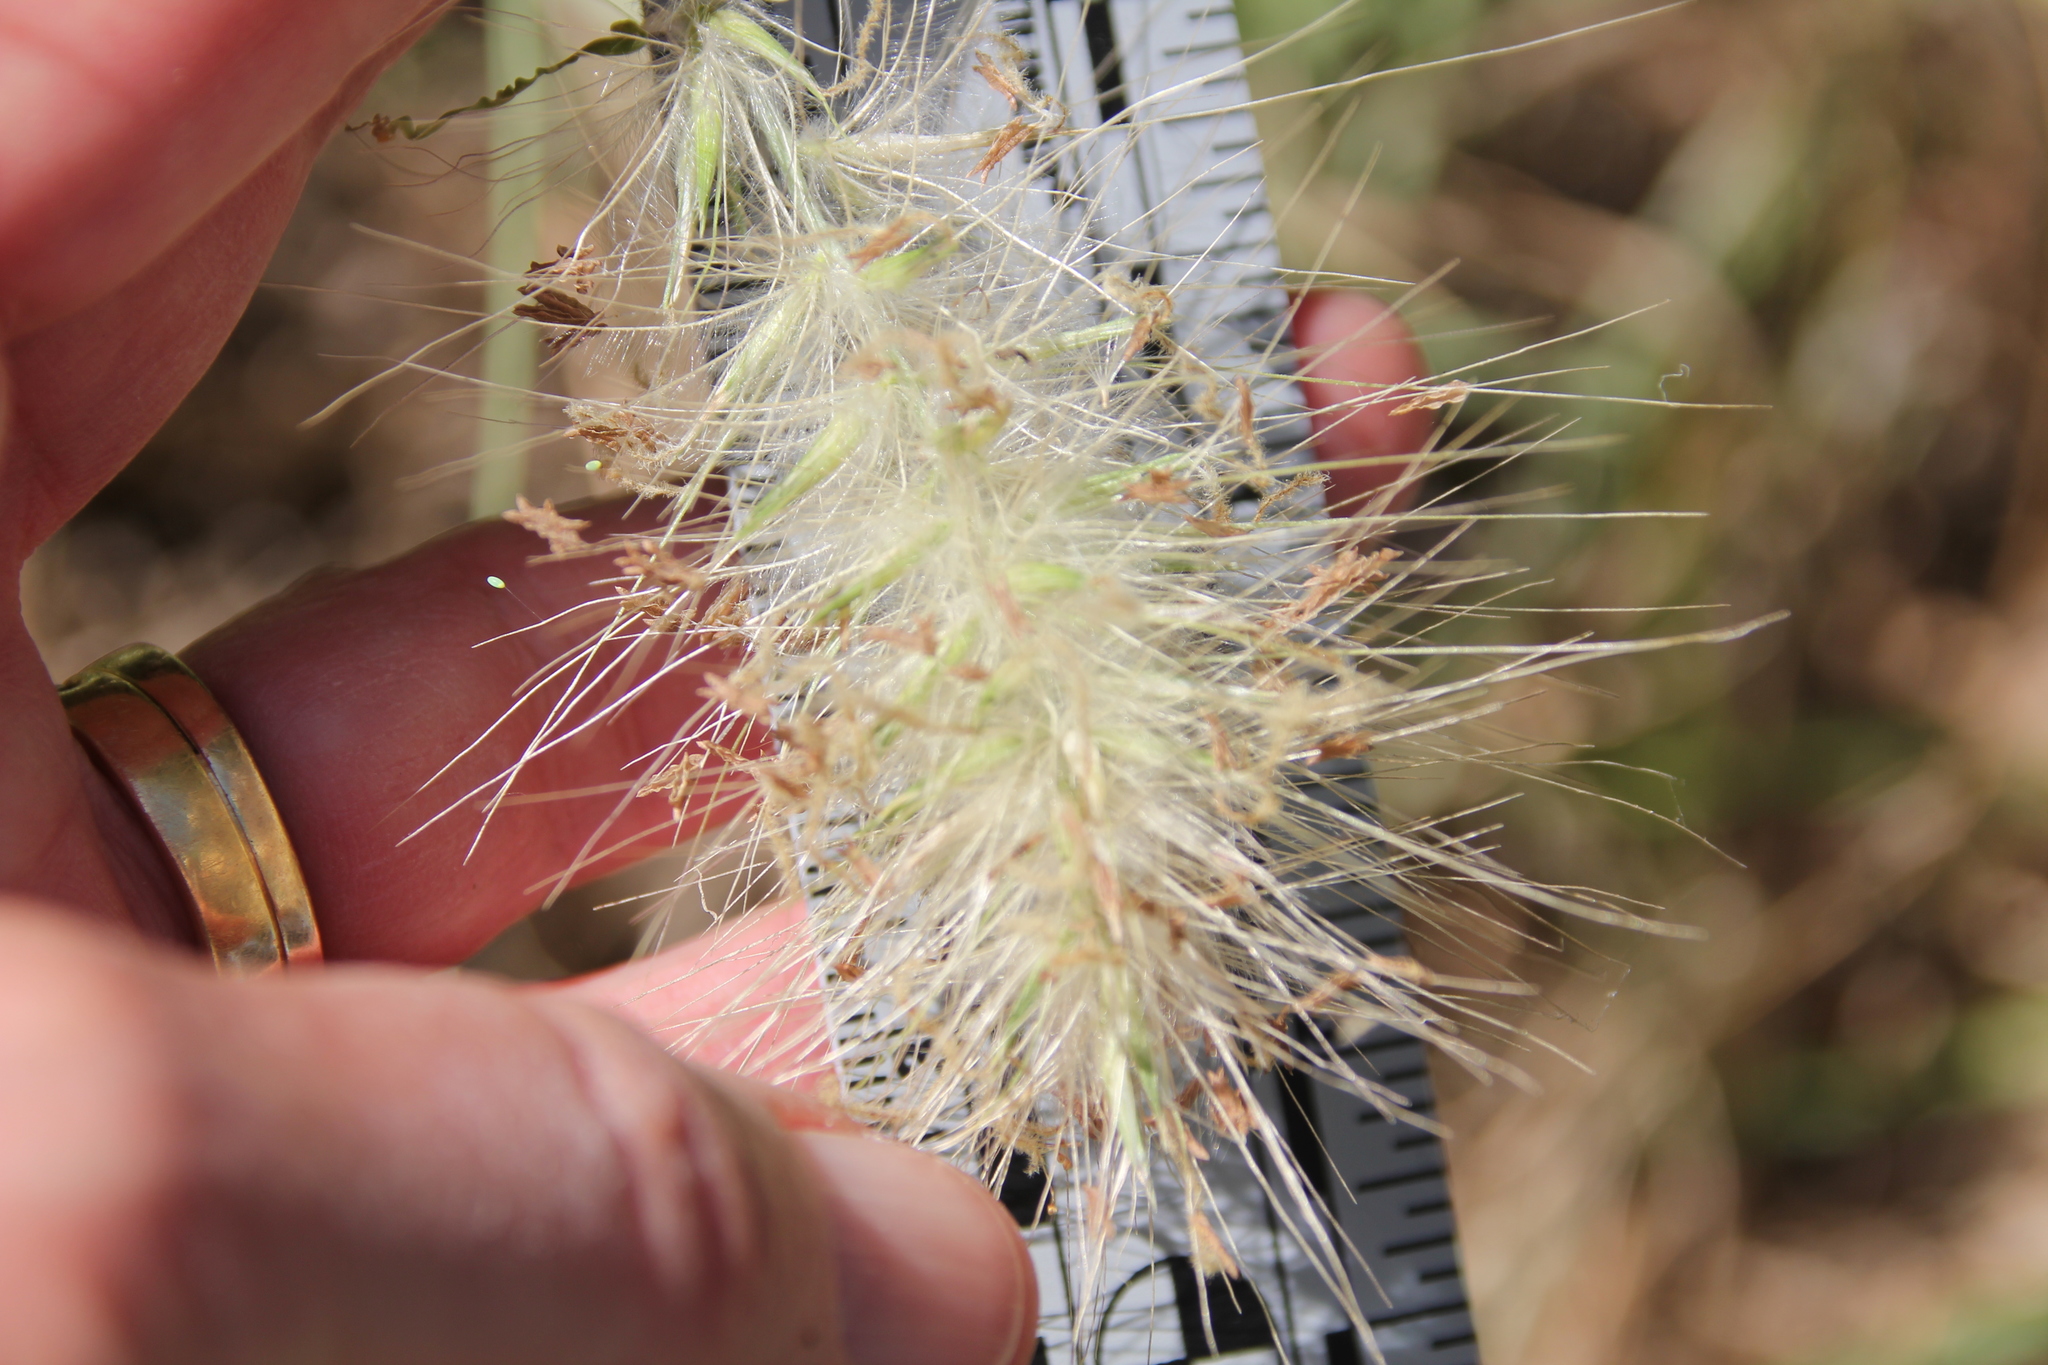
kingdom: Plantae
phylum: Tracheophyta
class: Liliopsida
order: Poales
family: Poaceae
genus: Cenchrus
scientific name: Cenchrus longisetus
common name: Feathertop
